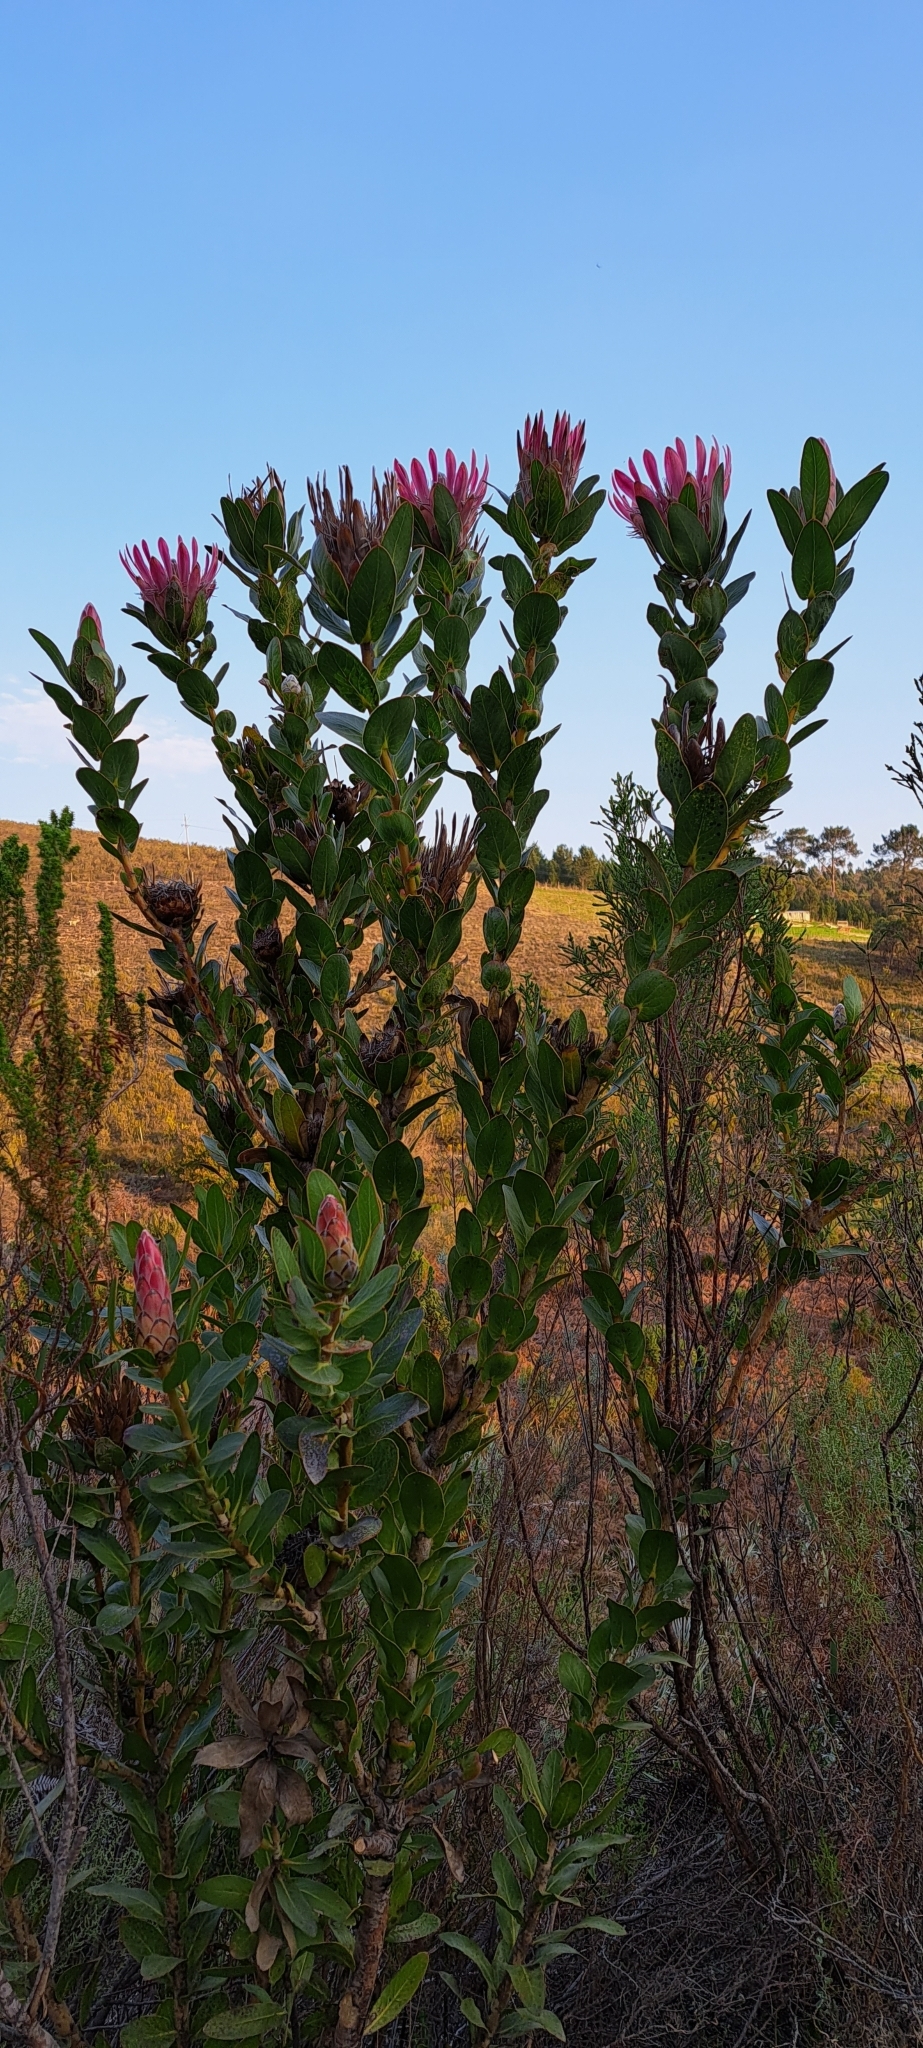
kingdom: Plantae
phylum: Tracheophyta
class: Magnoliopsida
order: Proteales
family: Proteaceae
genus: Protea
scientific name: Protea compacta
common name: Bot river protea
